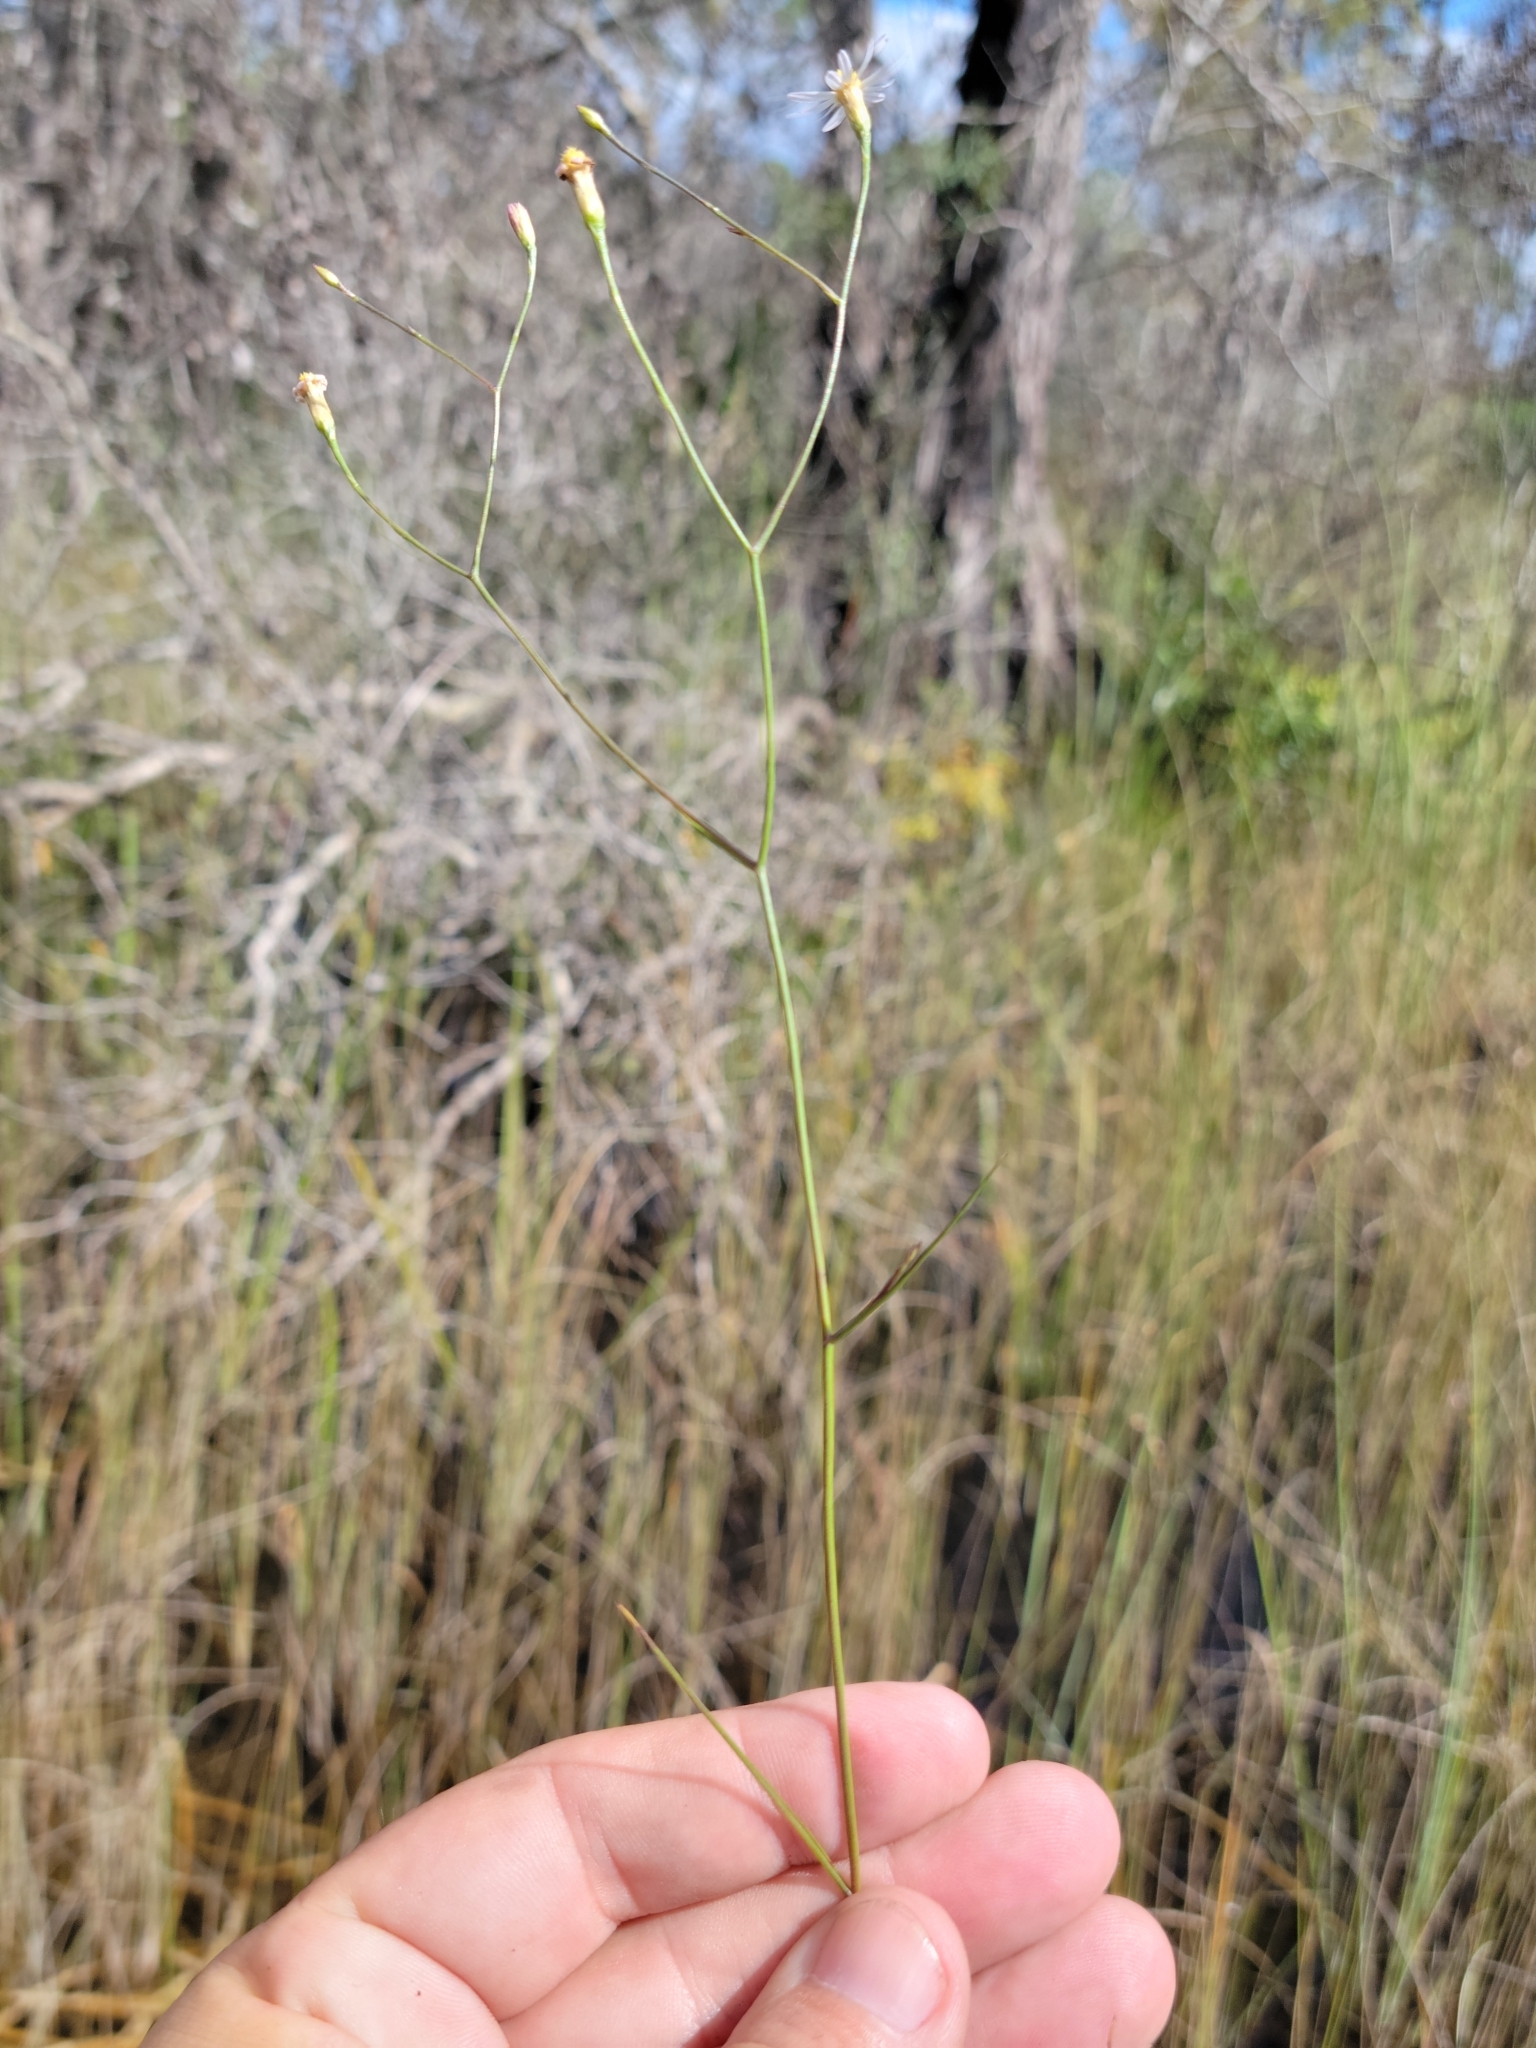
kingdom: Plantae
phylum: Tracheophyta
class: Magnoliopsida
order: Asterales
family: Asteraceae
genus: Symphyotrichum
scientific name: Symphyotrichum tenuifolium
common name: Perennial salt-marsh aster
